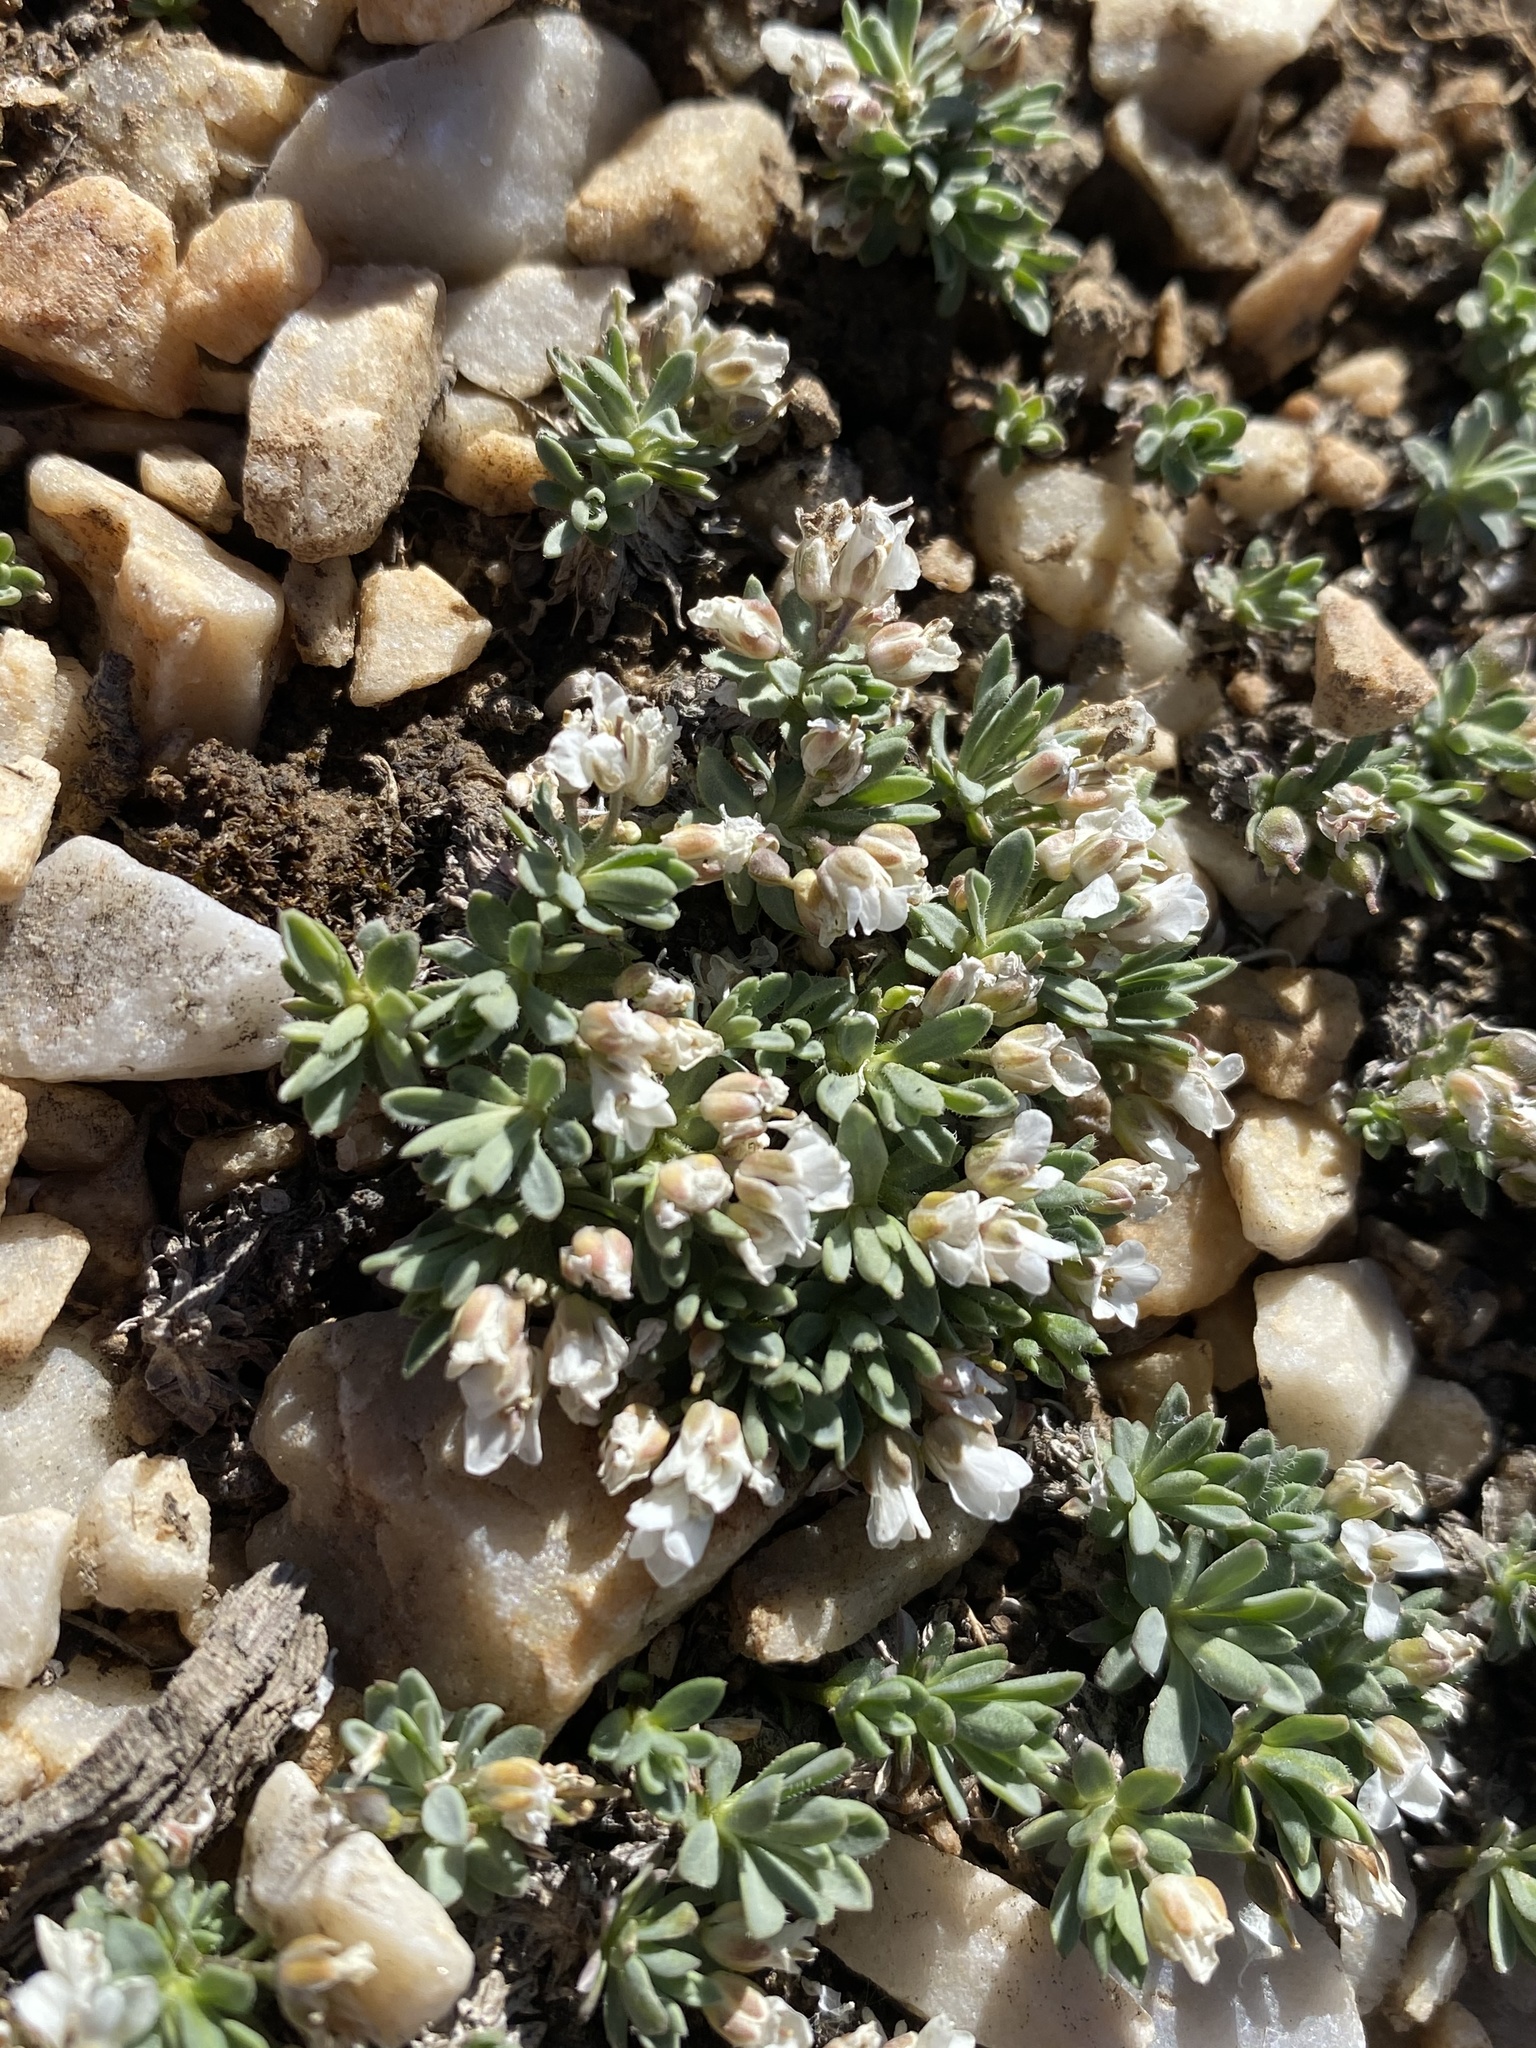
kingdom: Plantae
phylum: Tracheophyta
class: Magnoliopsida
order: Brassicales
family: Brassicaceae
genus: Cusickiella
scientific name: Cusickiella douglasii
